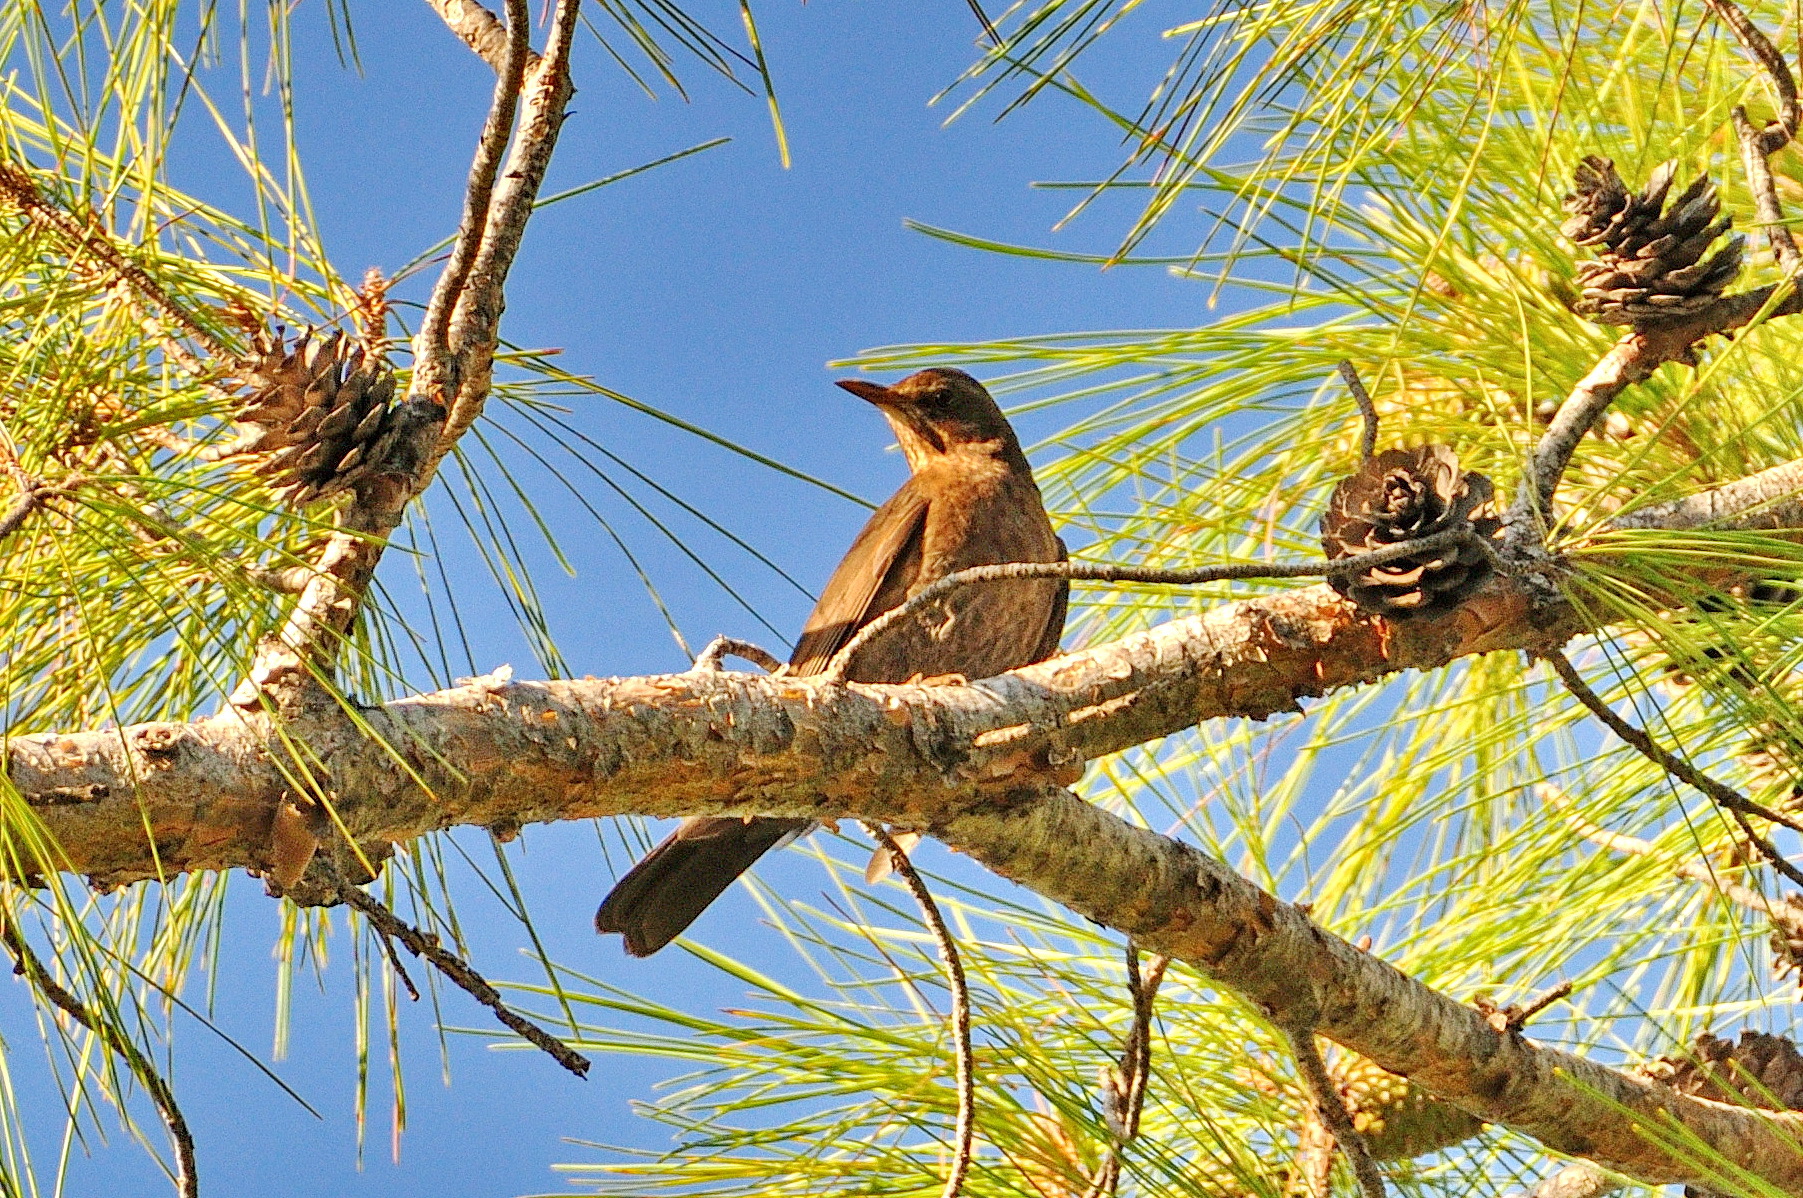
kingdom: Animalia
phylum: Chordata
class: Aves
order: Passeriformes
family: Turdidae
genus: Turdus
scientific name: Turdus merula
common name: Common blackbird
